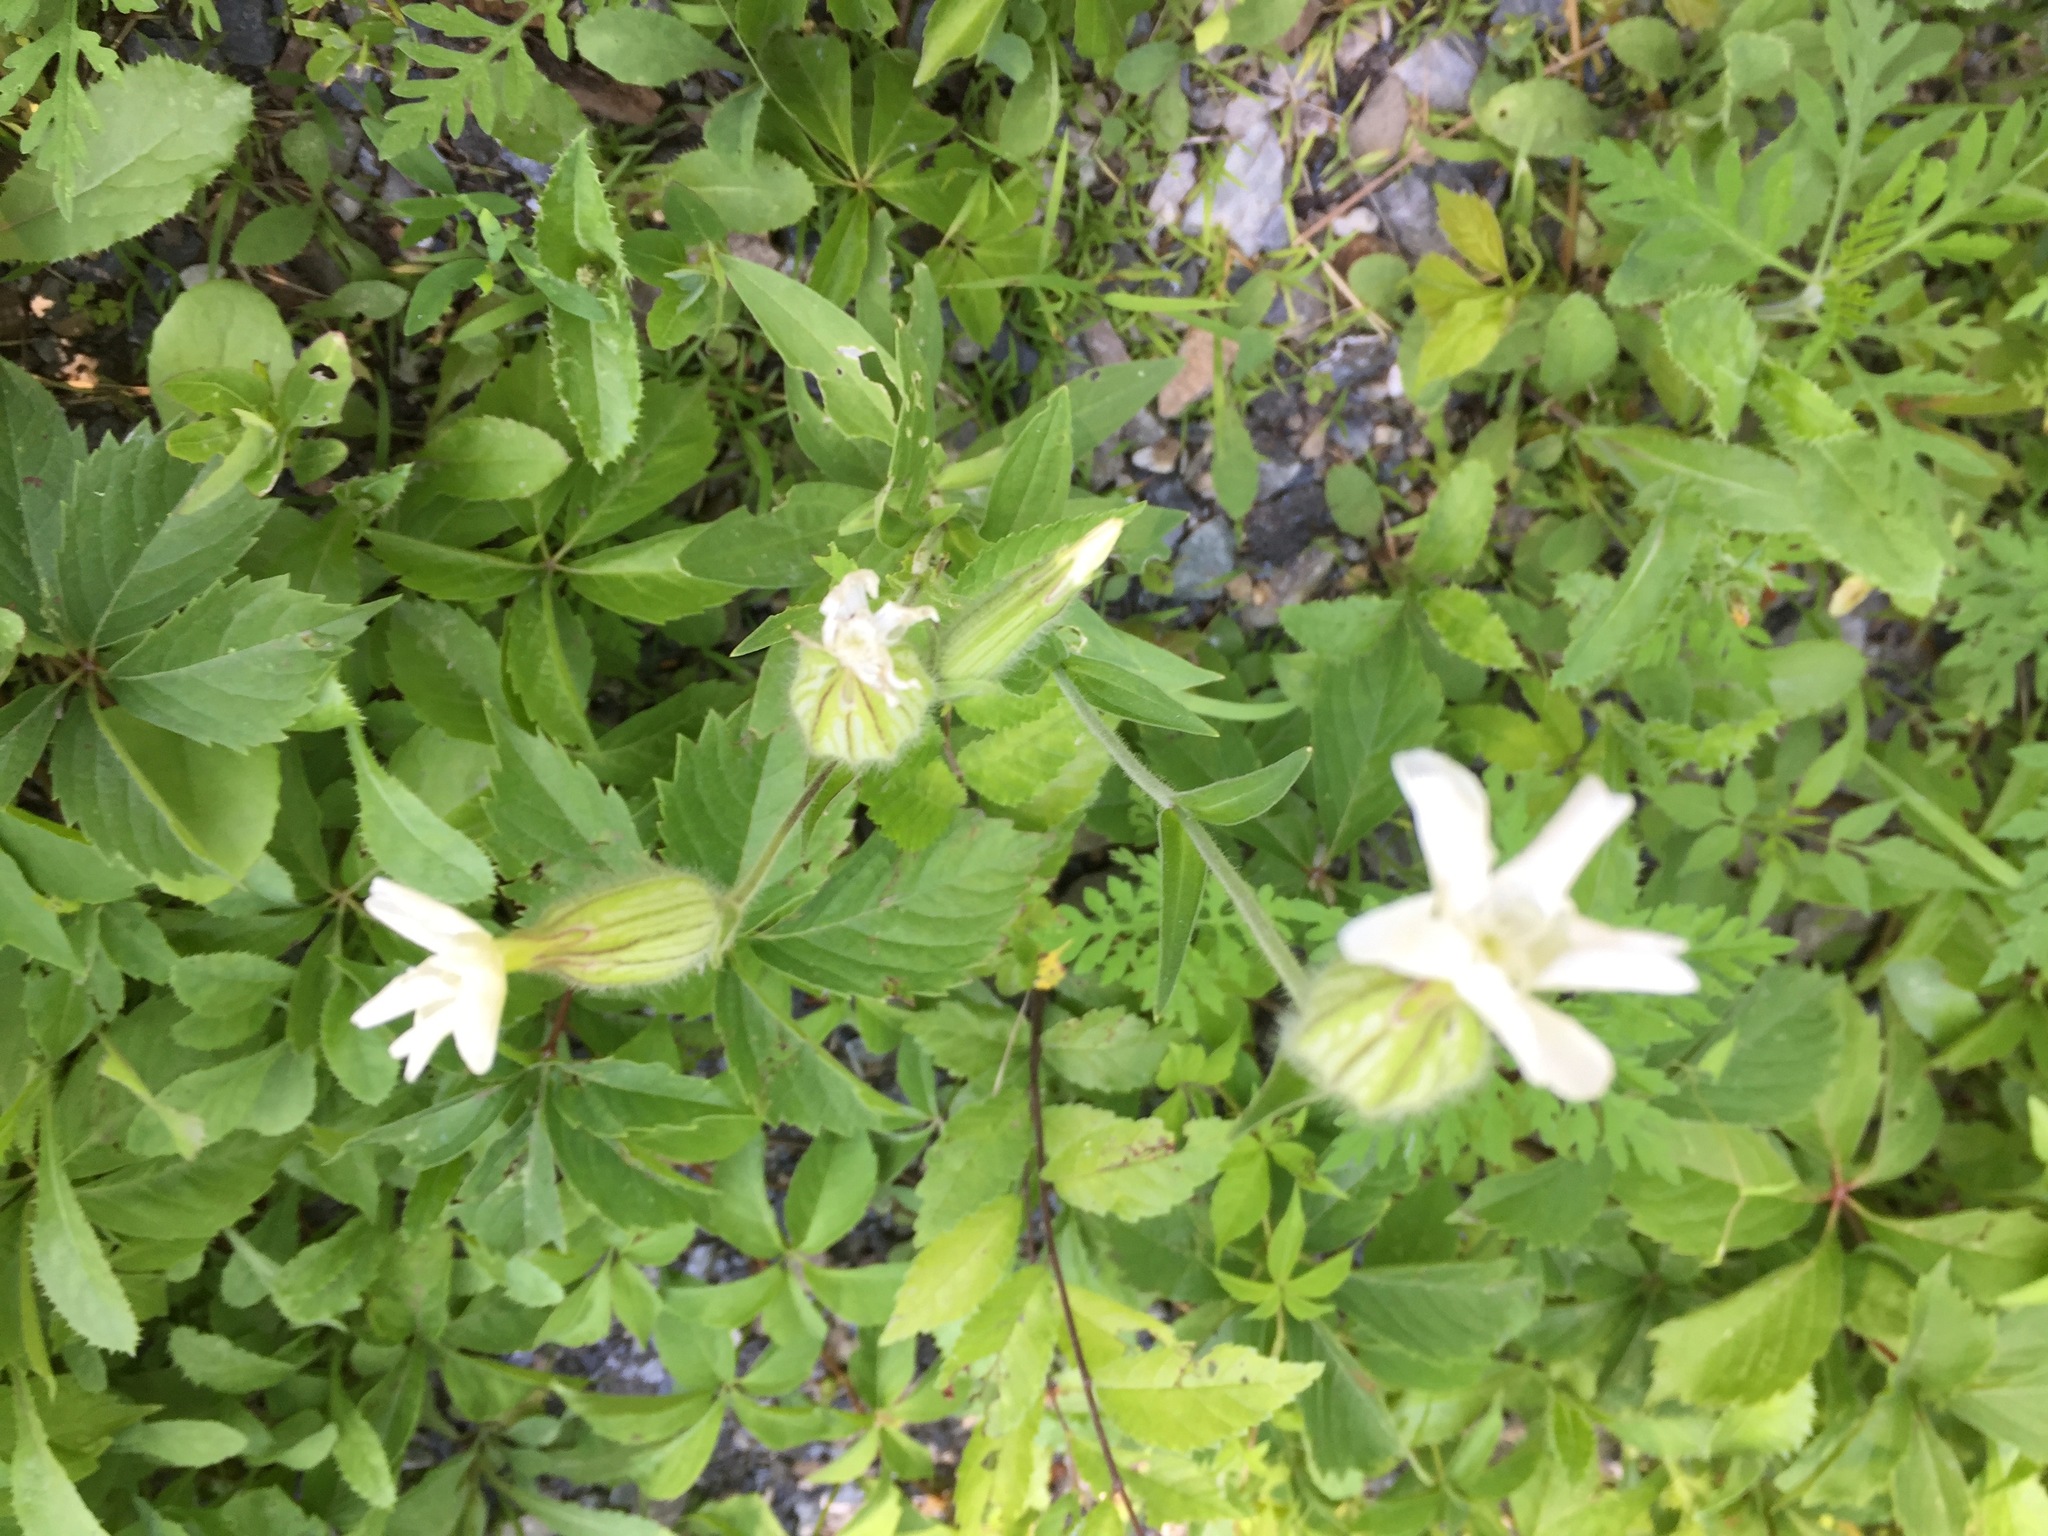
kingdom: Plantae
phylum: Tracheophyta
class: Magnoliopsida
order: Caryophyllales
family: Caryophyllaceae
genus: Silene
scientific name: Silene latifolia
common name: White campion
